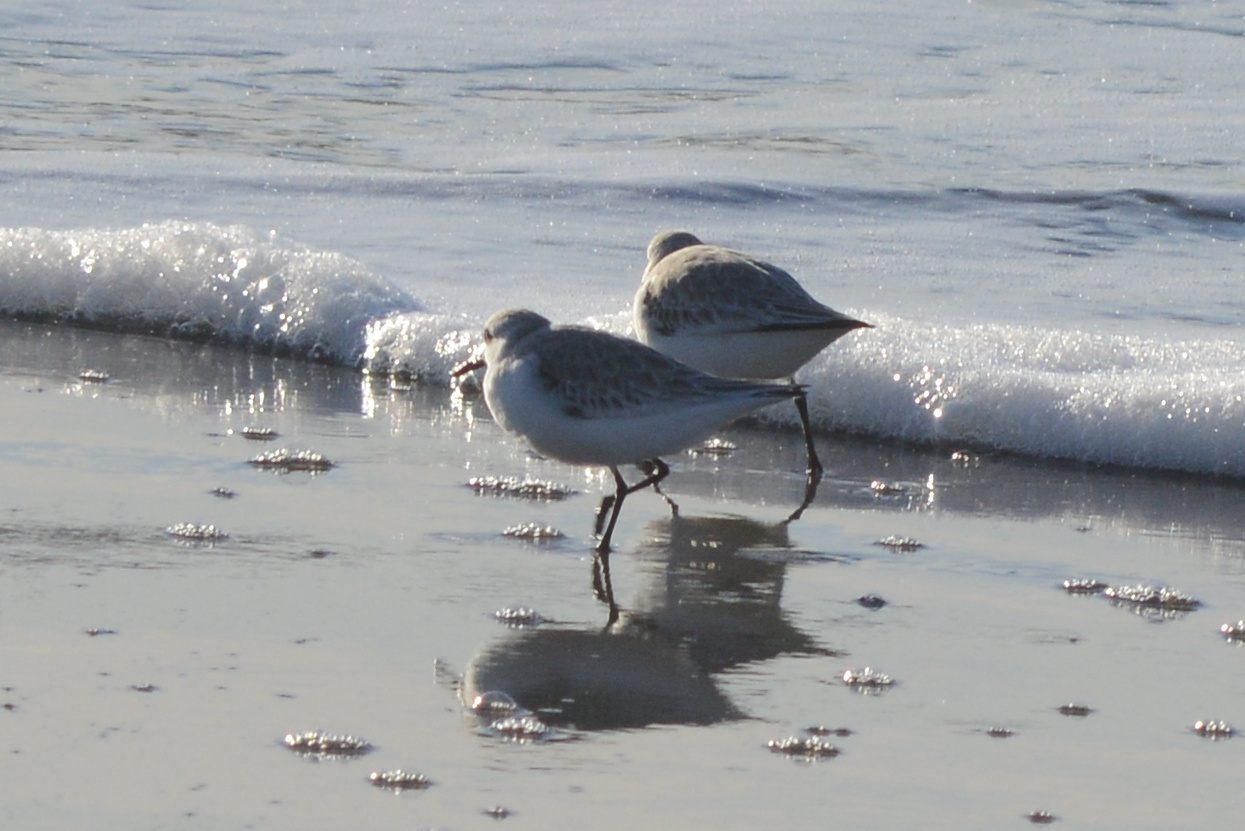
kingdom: Animalia
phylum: Chordata
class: Aves
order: Charadriiformes
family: Scolopacidae
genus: Calidris
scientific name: Calidris alba
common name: Sanderling
